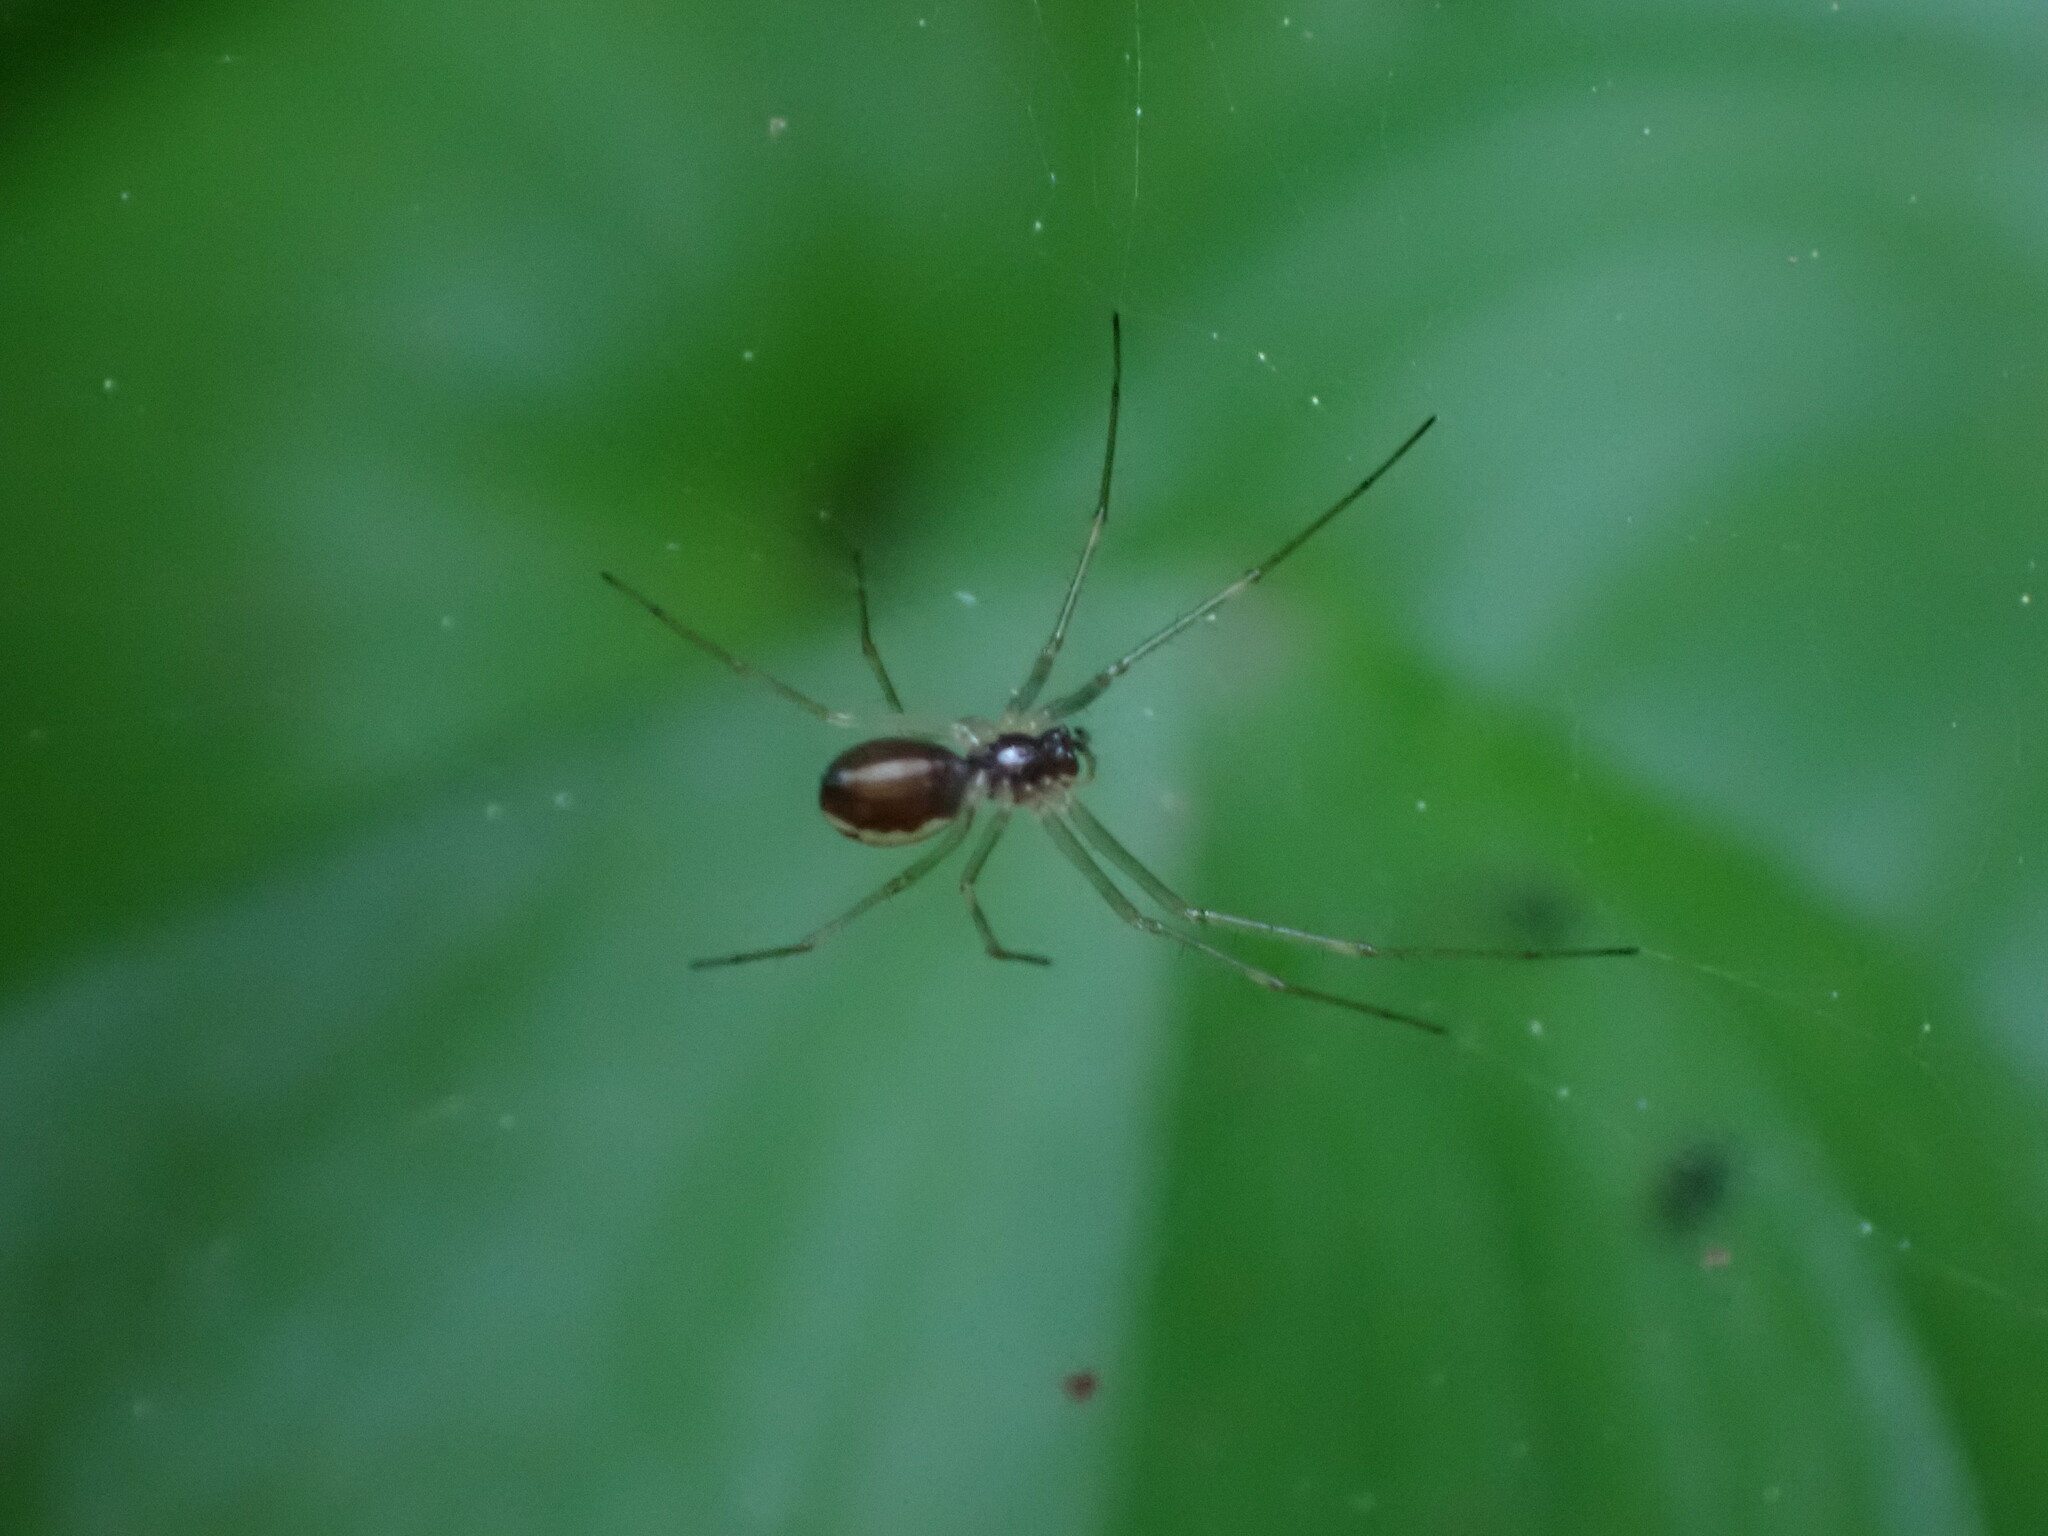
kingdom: Animalia
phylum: Arthropoda
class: Arachnida
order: Araneae
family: Linyphiidae
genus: Microlinyphia
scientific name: Microlinyphia dana
